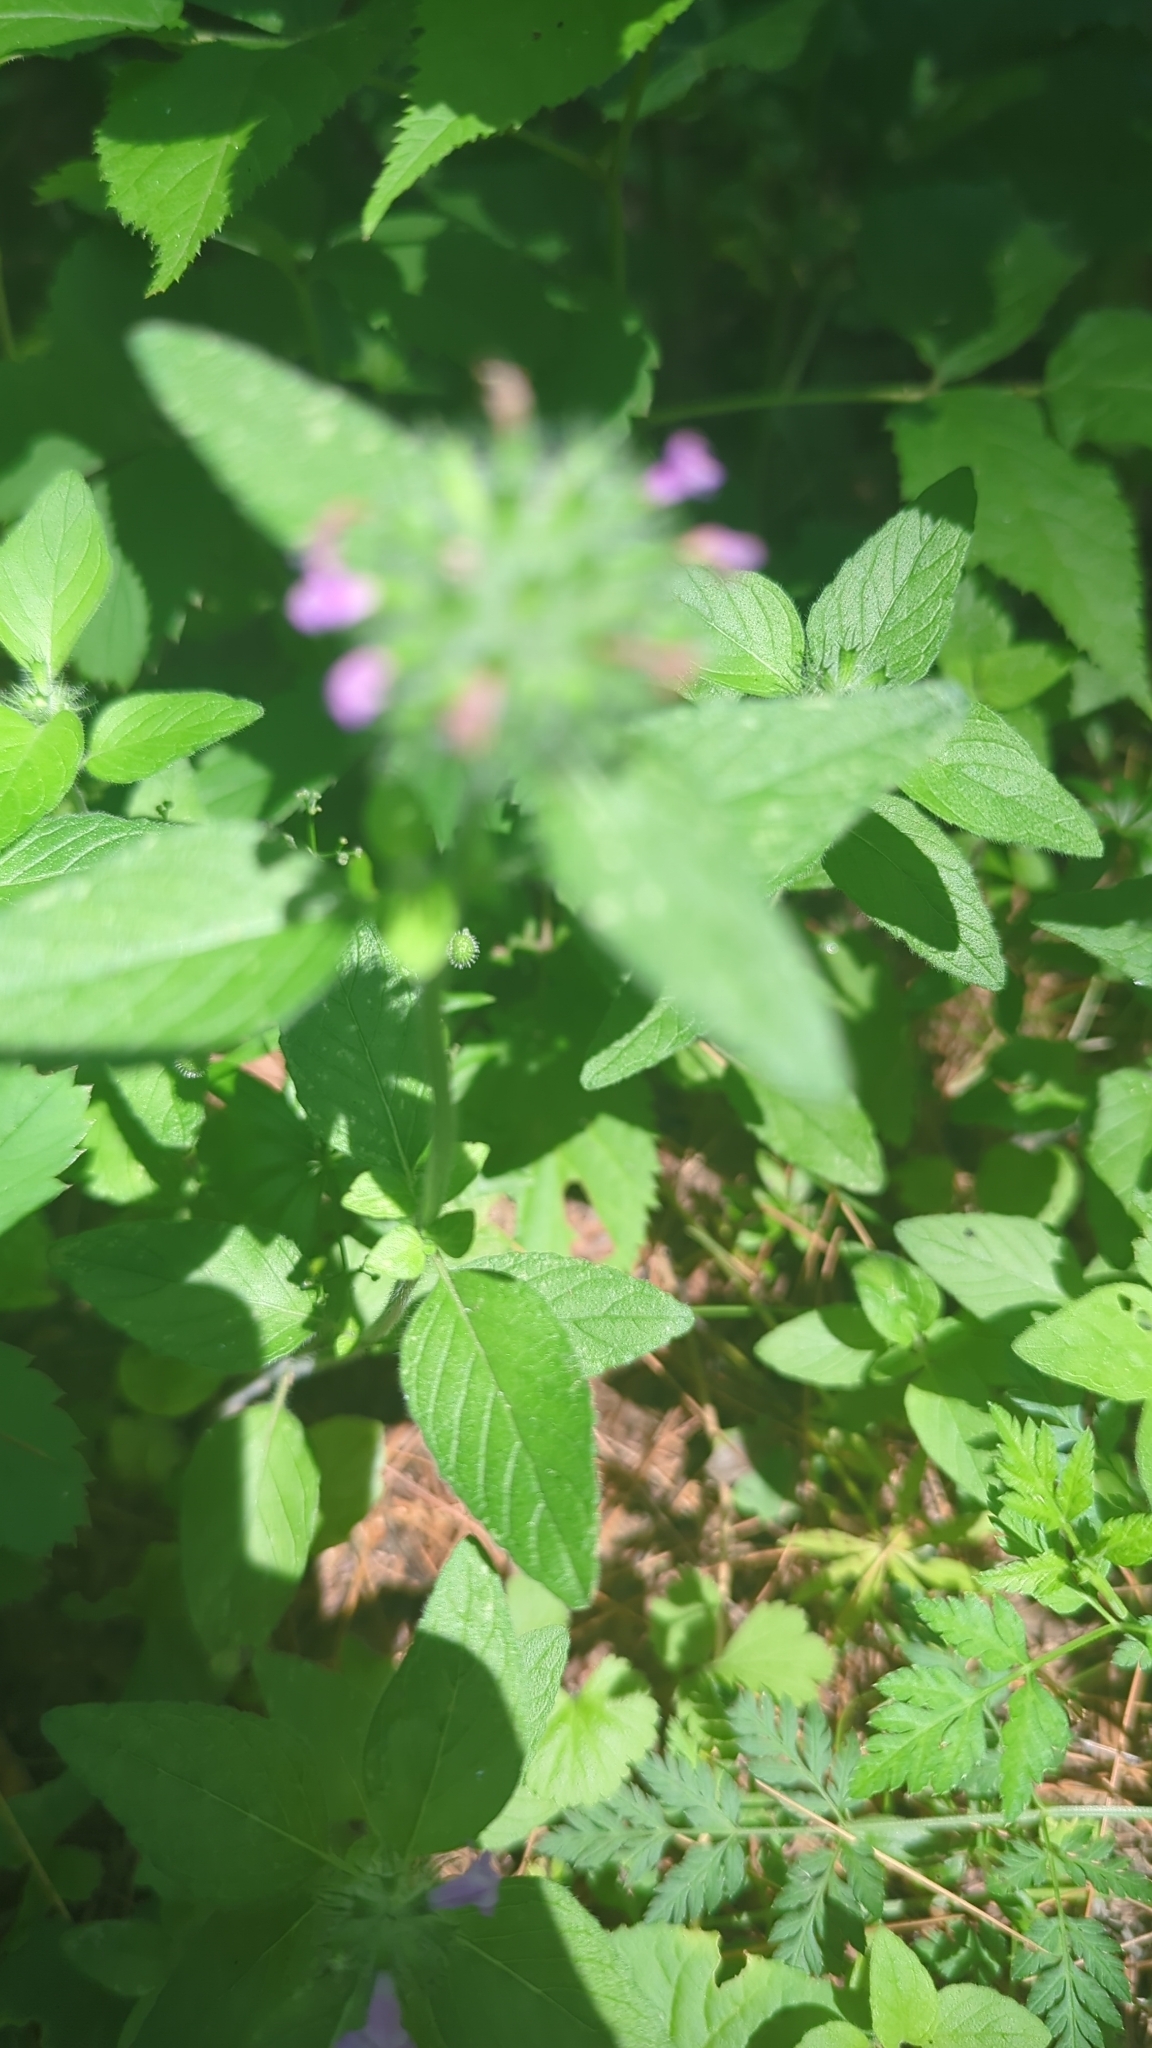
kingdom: Plantae
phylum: Tracheophyta
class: Magnoliopsida
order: Lamiales
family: Lamiaceae
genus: Clinopodium
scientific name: Clinopodium vulgare
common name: Wild basil
